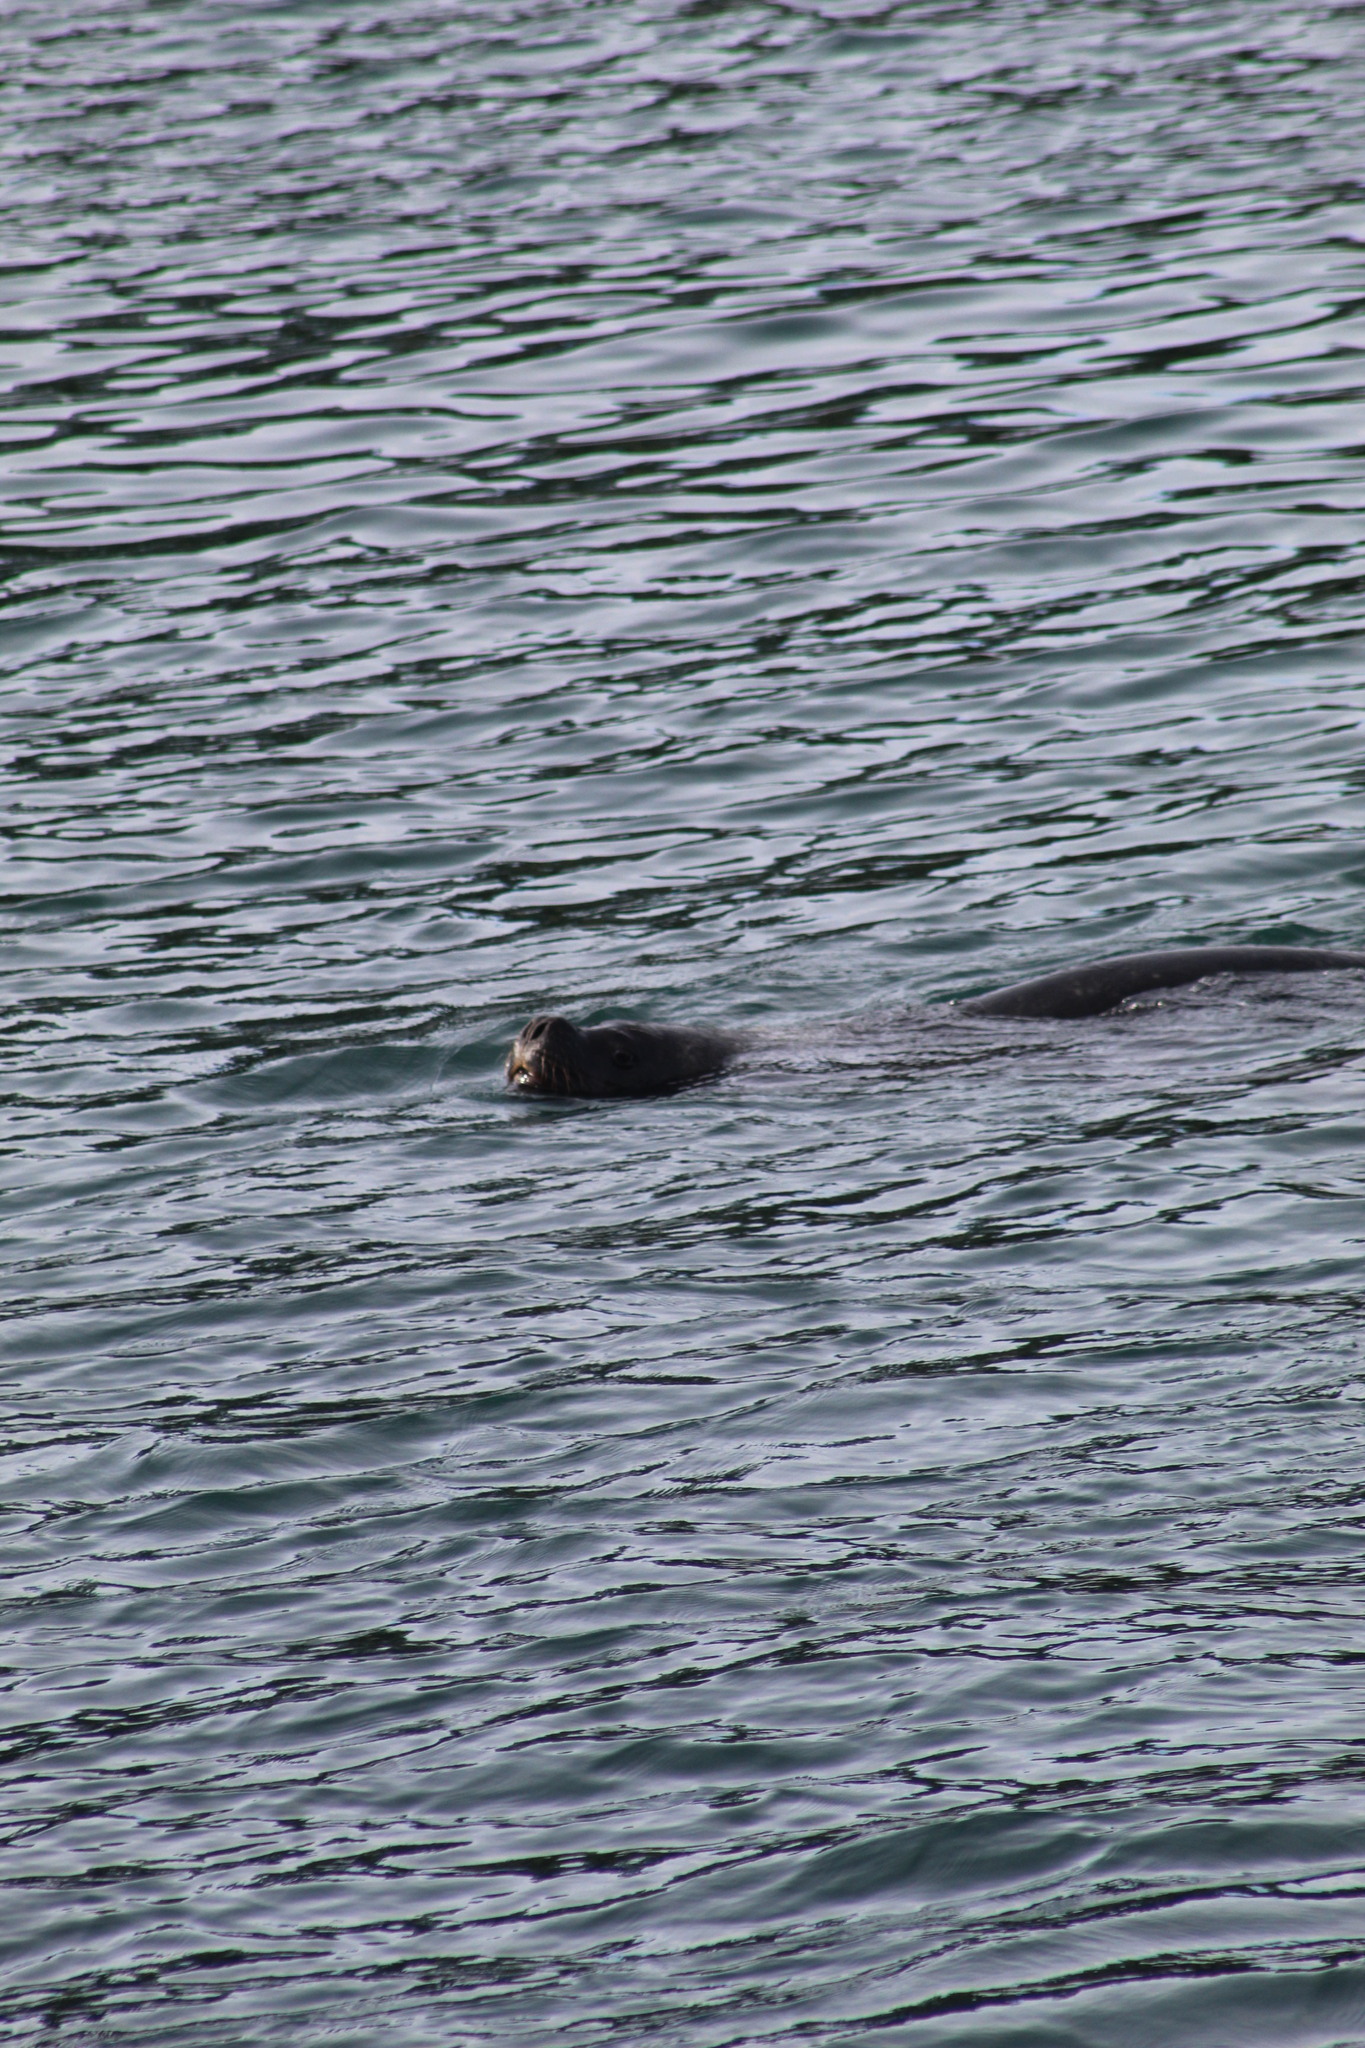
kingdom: Animalia
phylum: Chordata
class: Mammalia
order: Carnivora
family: Otariidae
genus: Otaria
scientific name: Otaria byronia
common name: South american sea lion
